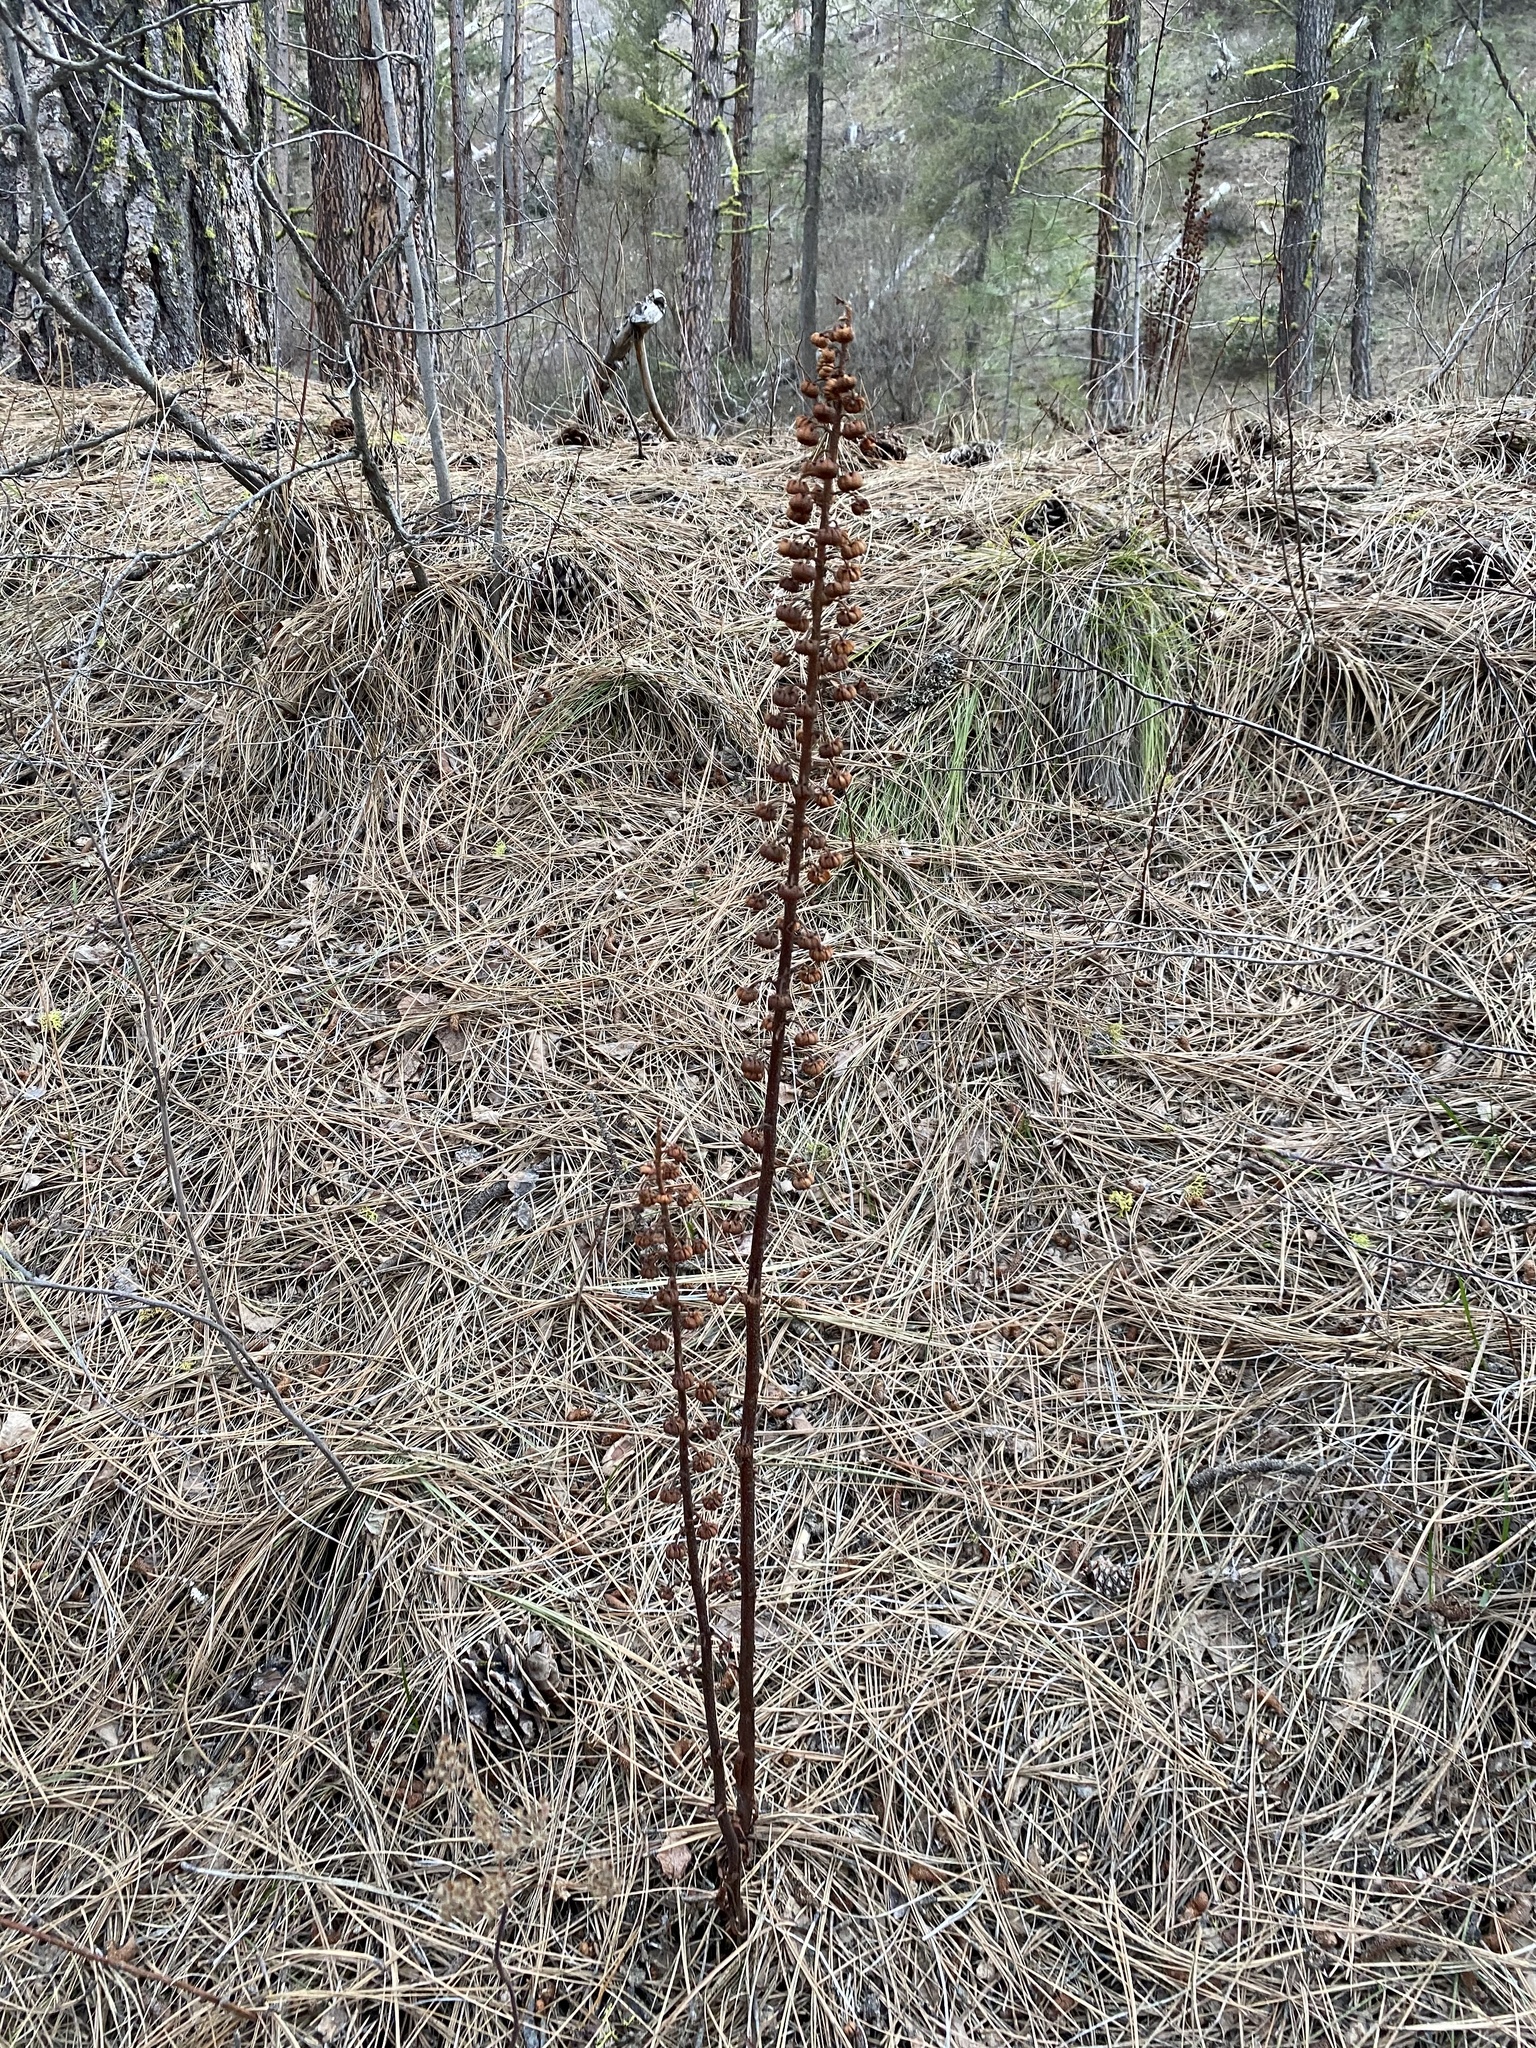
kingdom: Plantae
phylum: Tracheophyta
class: Magnoliopsida
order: Ericales
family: Ericaceae
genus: Pterospora
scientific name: Pterospora andromedea
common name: Giant bird's-nest
